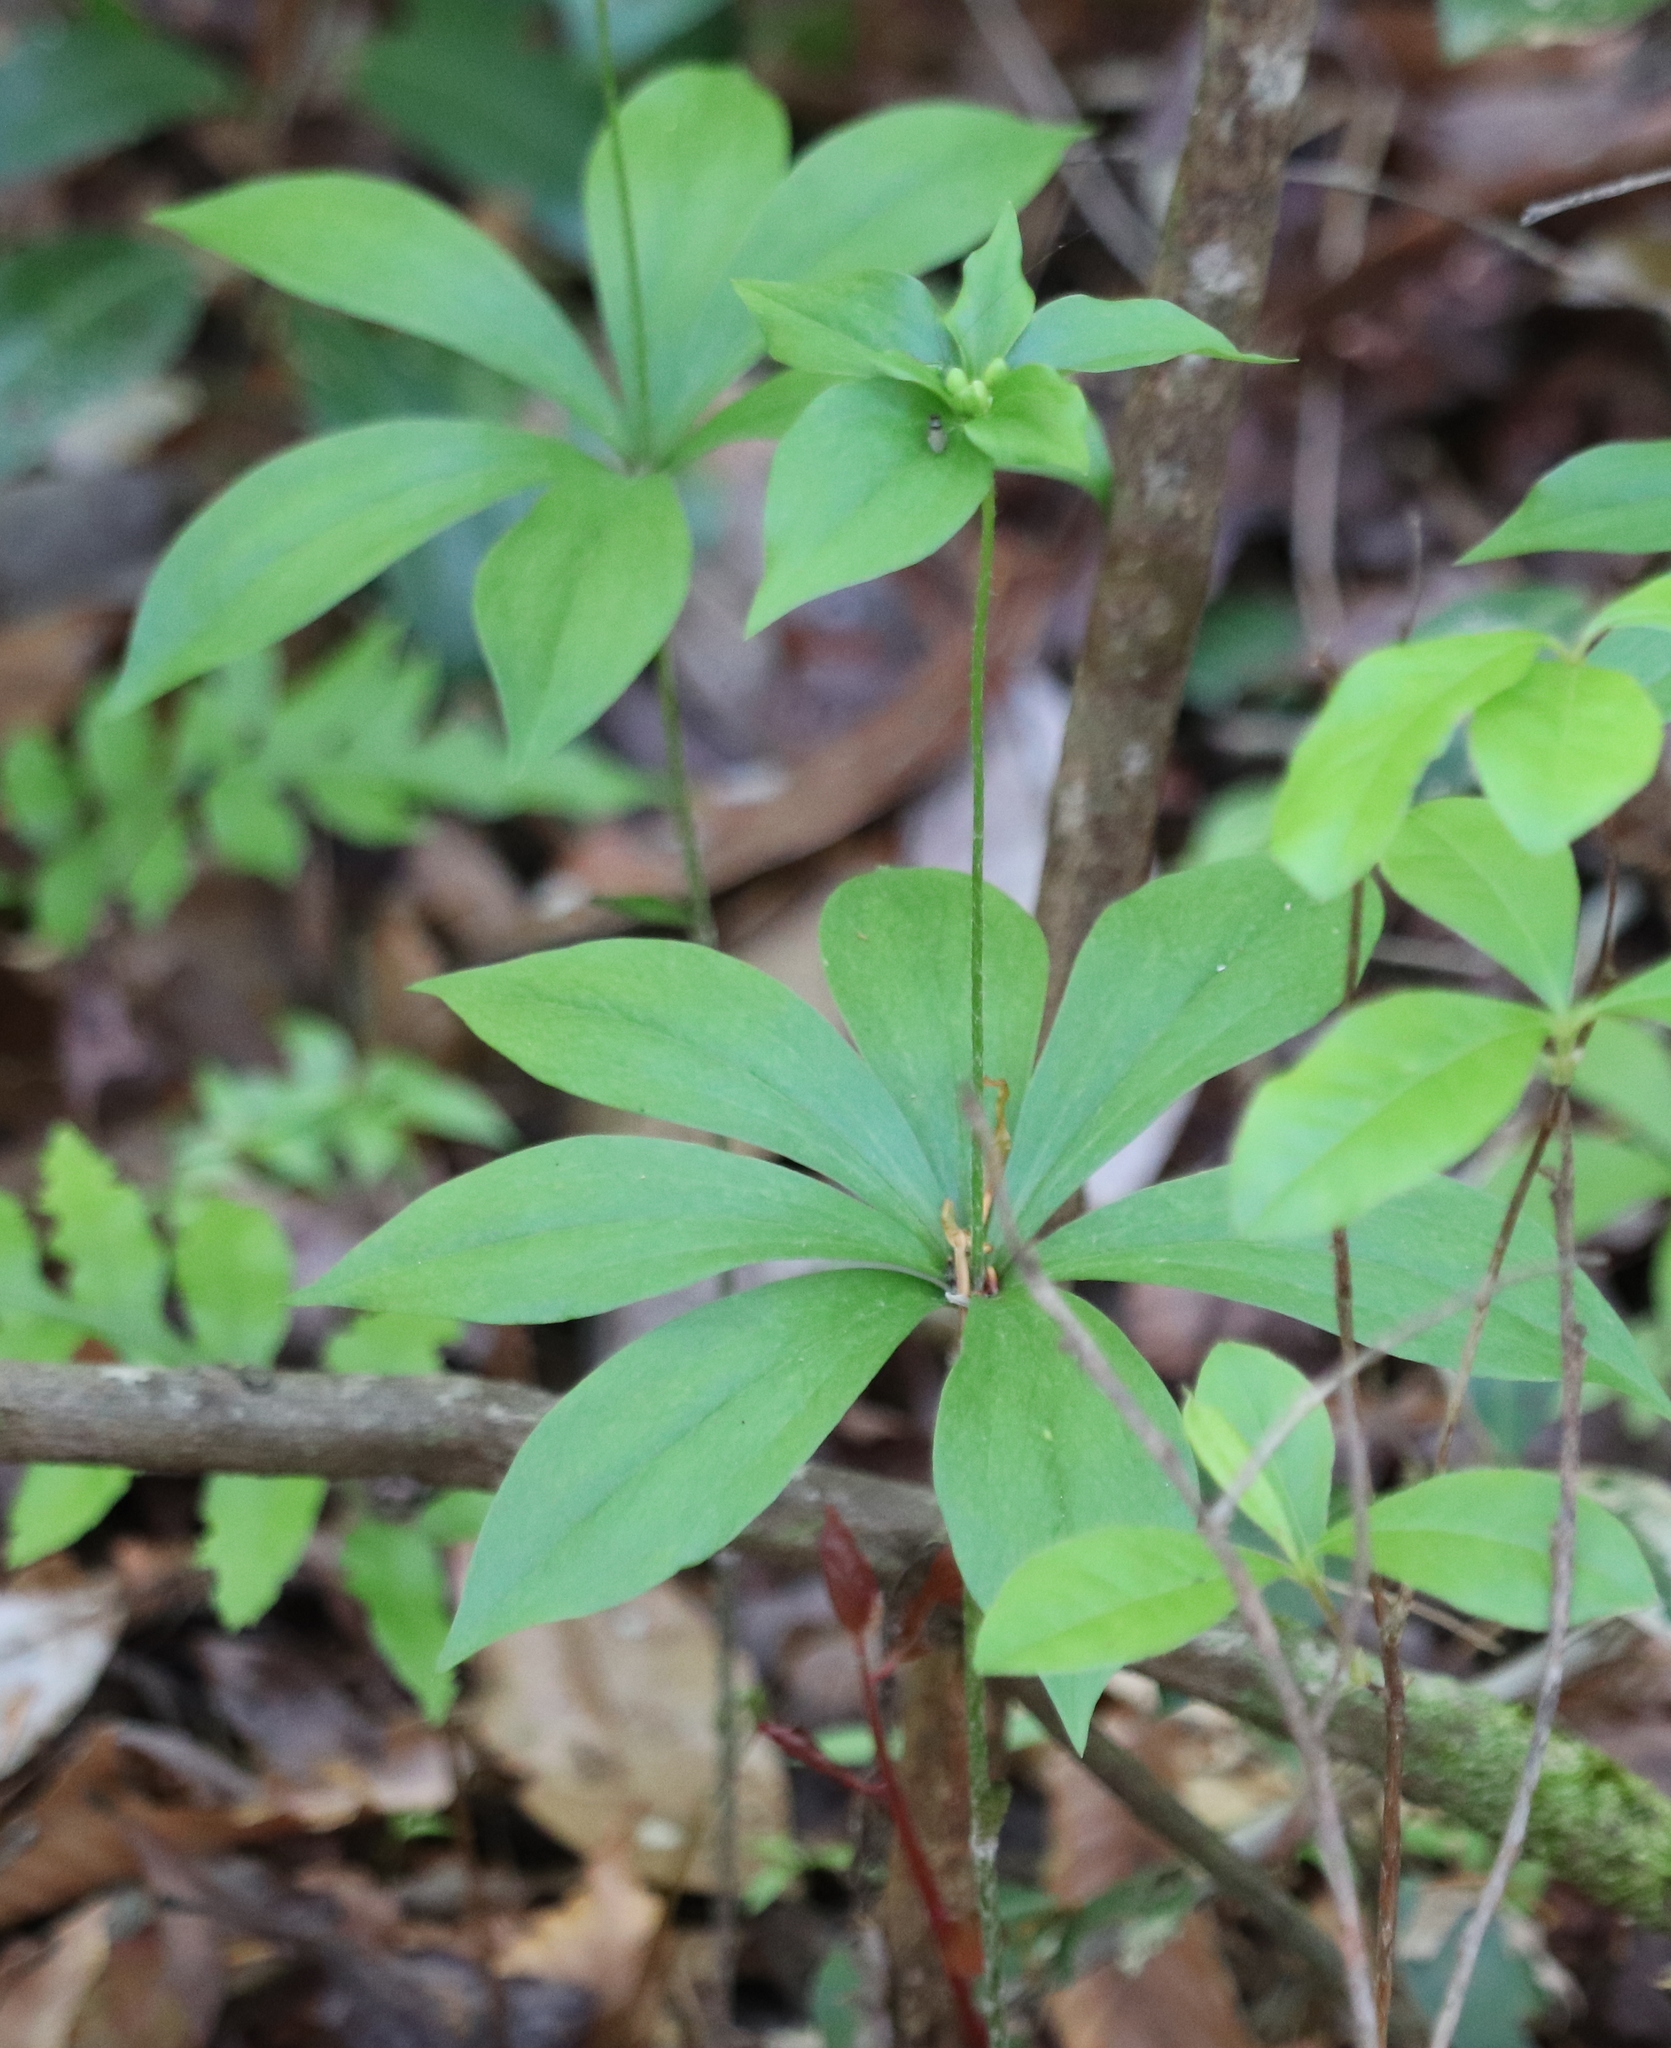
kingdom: Plantae
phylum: Tracheophyta
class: Liliopsida
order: Liliales
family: Liliaceae
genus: Medeola
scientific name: Medeola virginiana
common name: Indian cucumber-root
